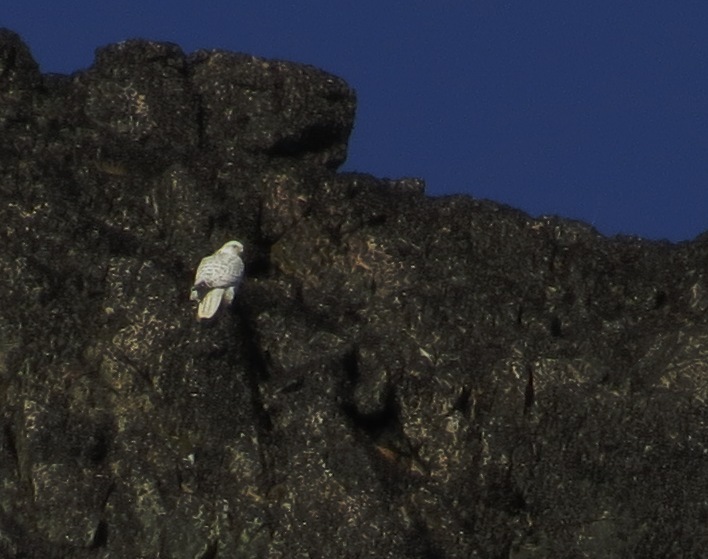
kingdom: Animalia
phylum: Chordata
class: Aves
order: Falconiformes
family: Falconidae
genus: Falco
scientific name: Falco rusticolus
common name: Gyrfalcon
